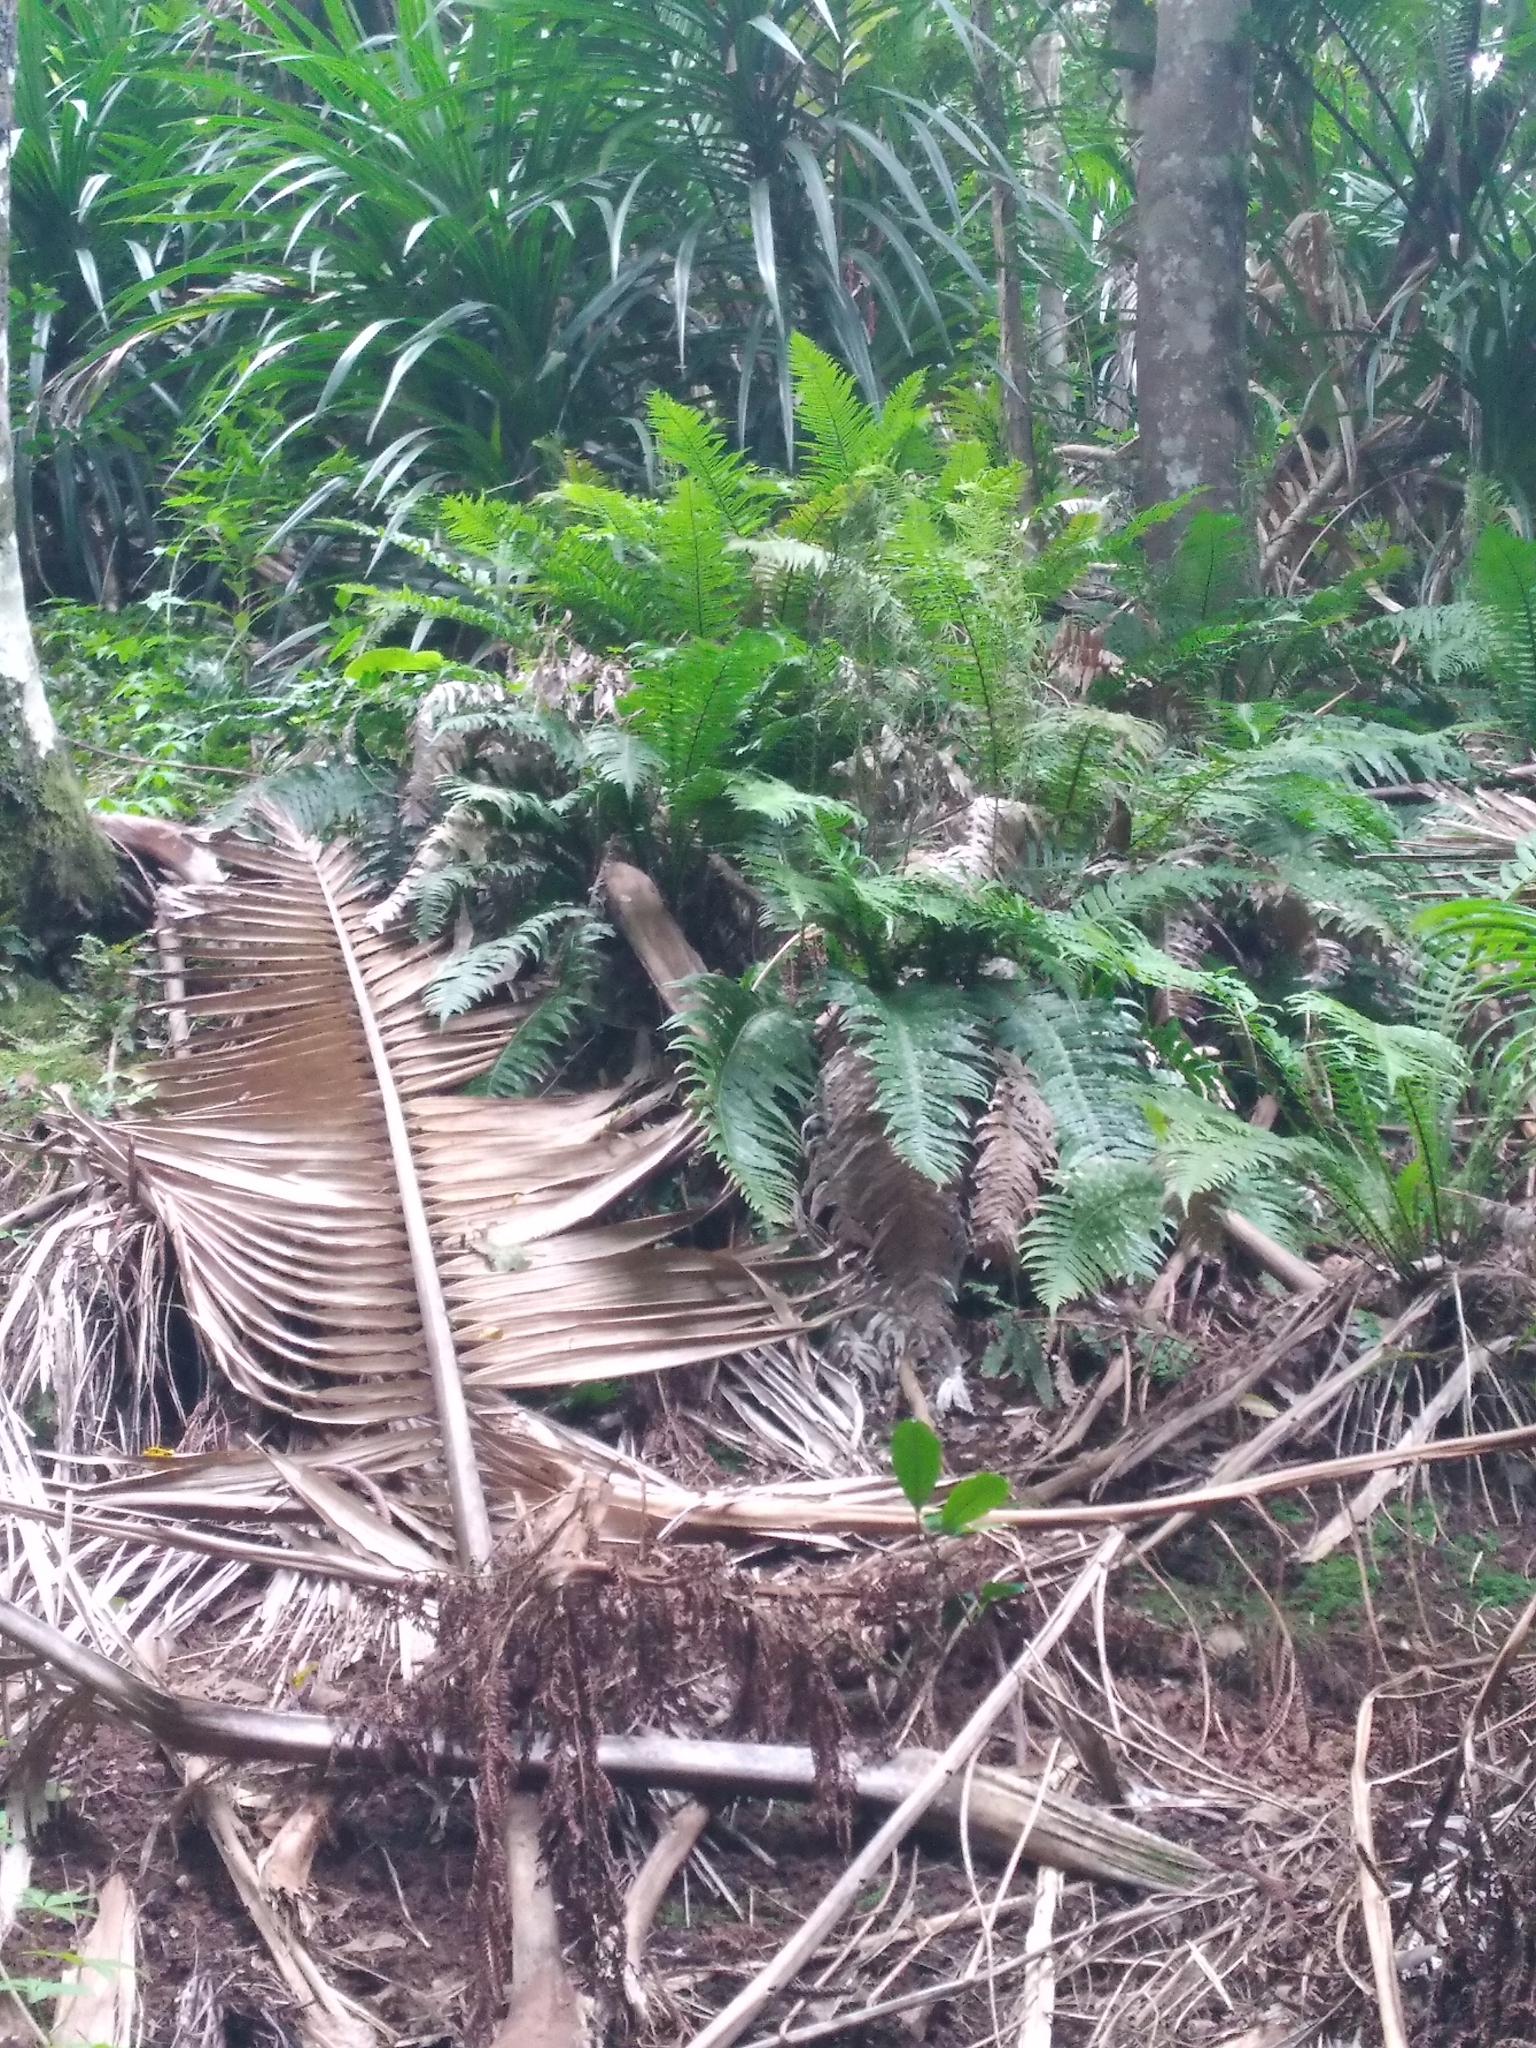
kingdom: Plantae
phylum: Tracheophyta
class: Polypodiopsida
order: Polypodiales
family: Blechnaceae
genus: Austroblechnum
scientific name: Austroblechnum norfolkianum
